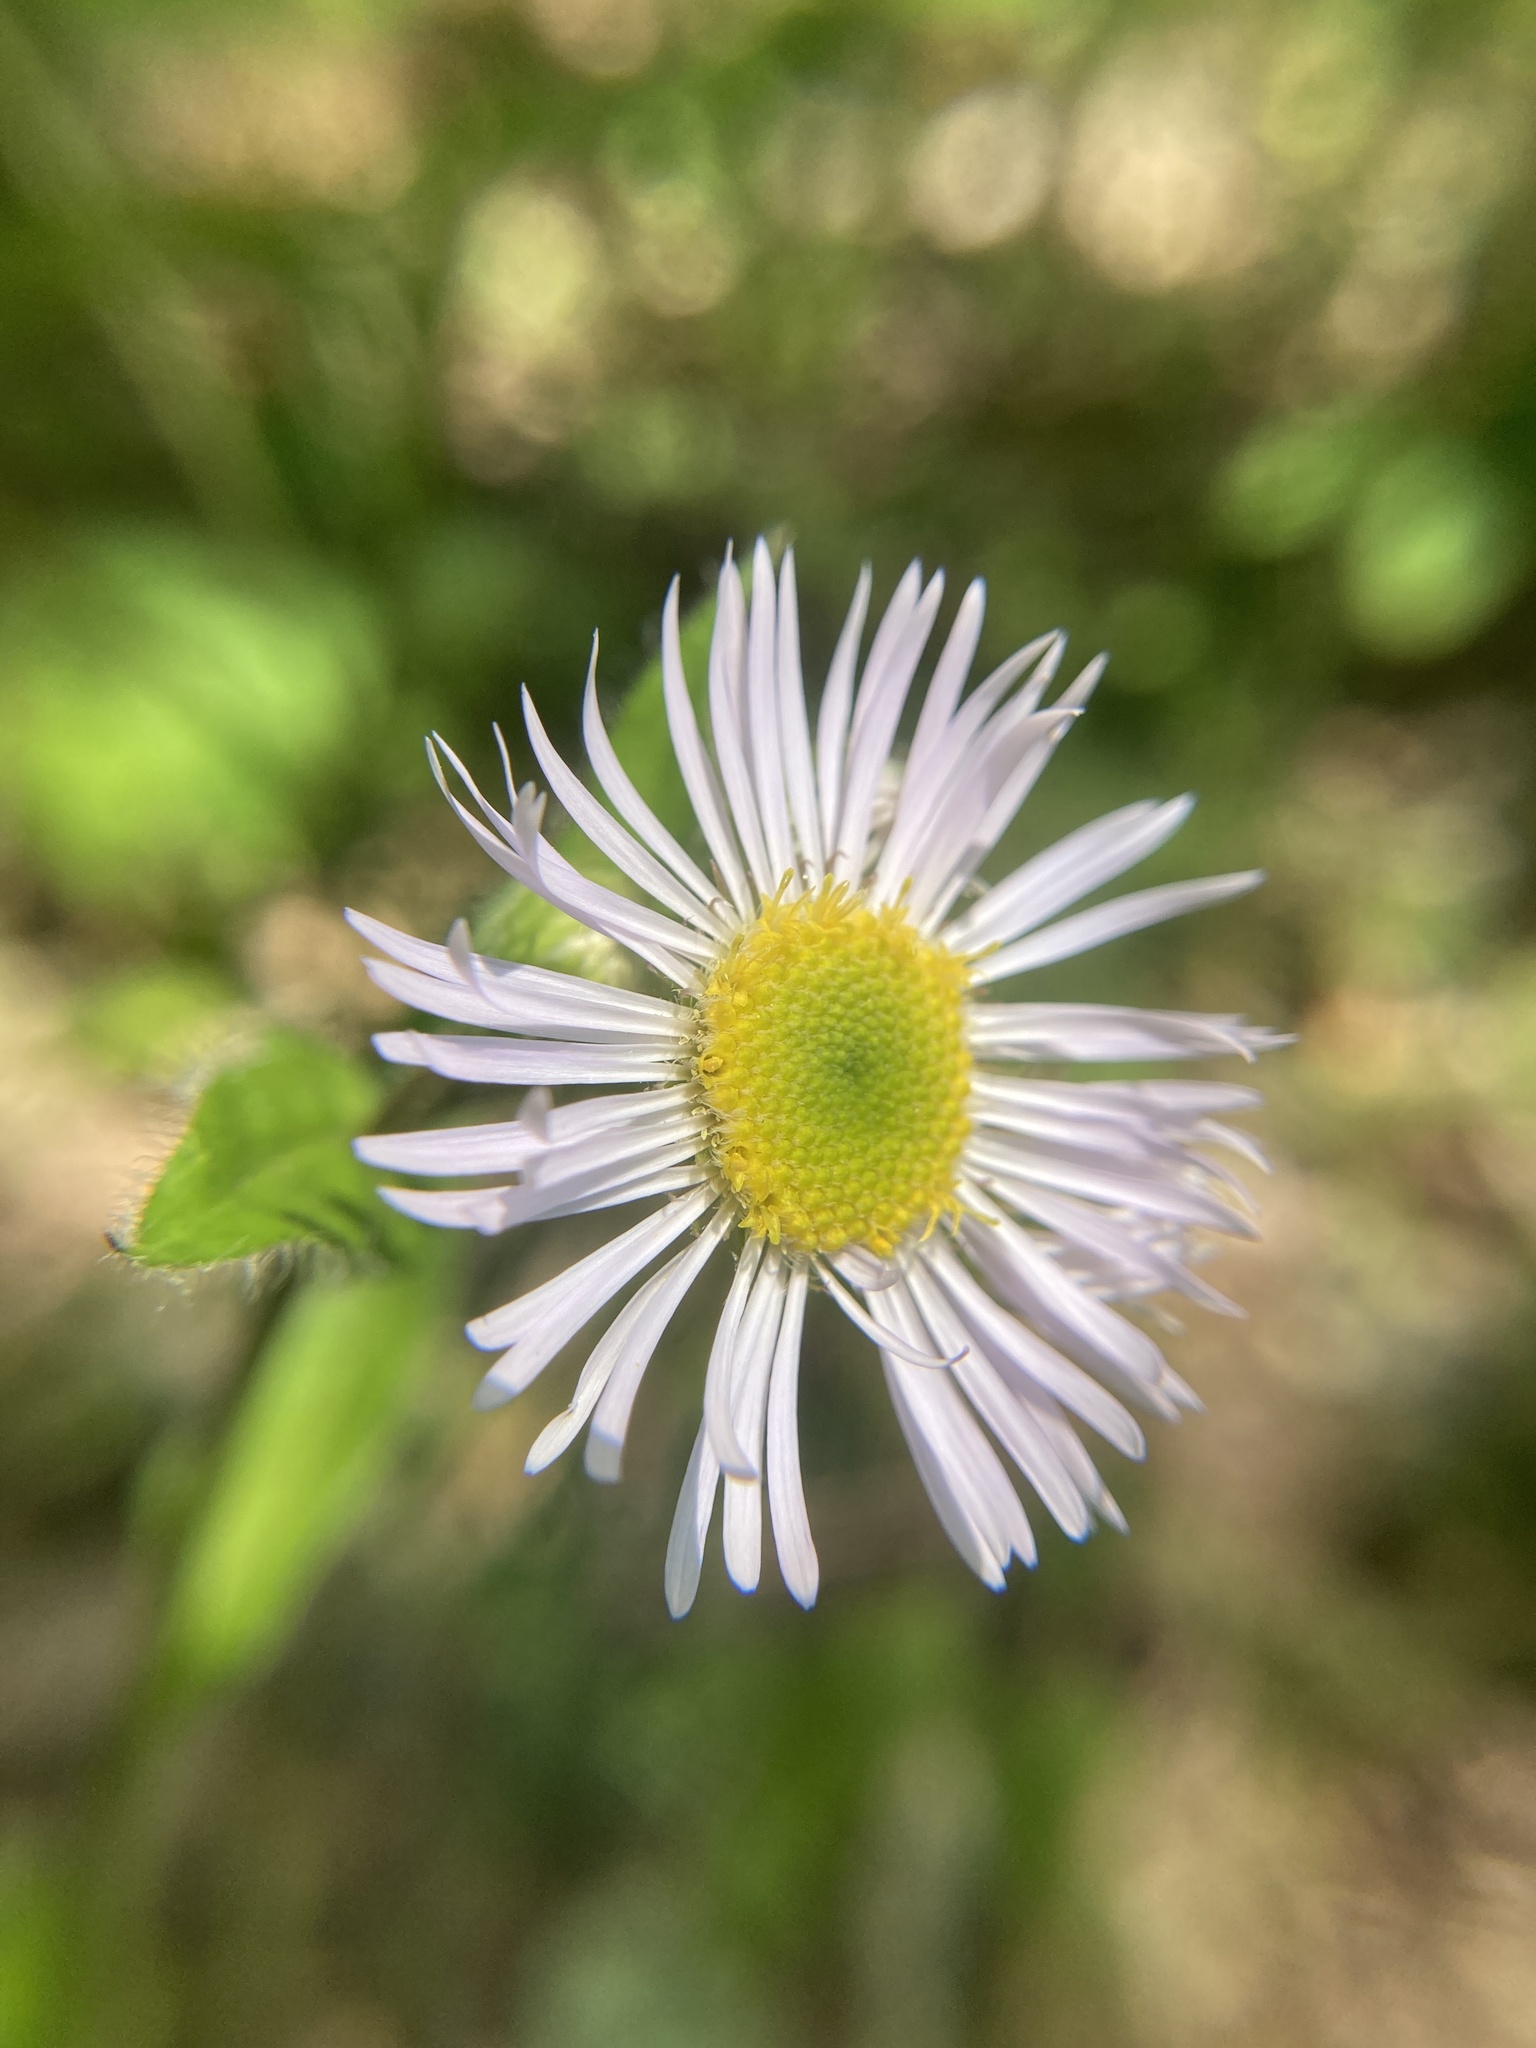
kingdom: Plantae
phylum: Tracheophyta
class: Magnoliopsida
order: Asterales
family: Asteraceae
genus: Erigeron
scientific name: Erigeron pulchellus
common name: Hairy fleabane
